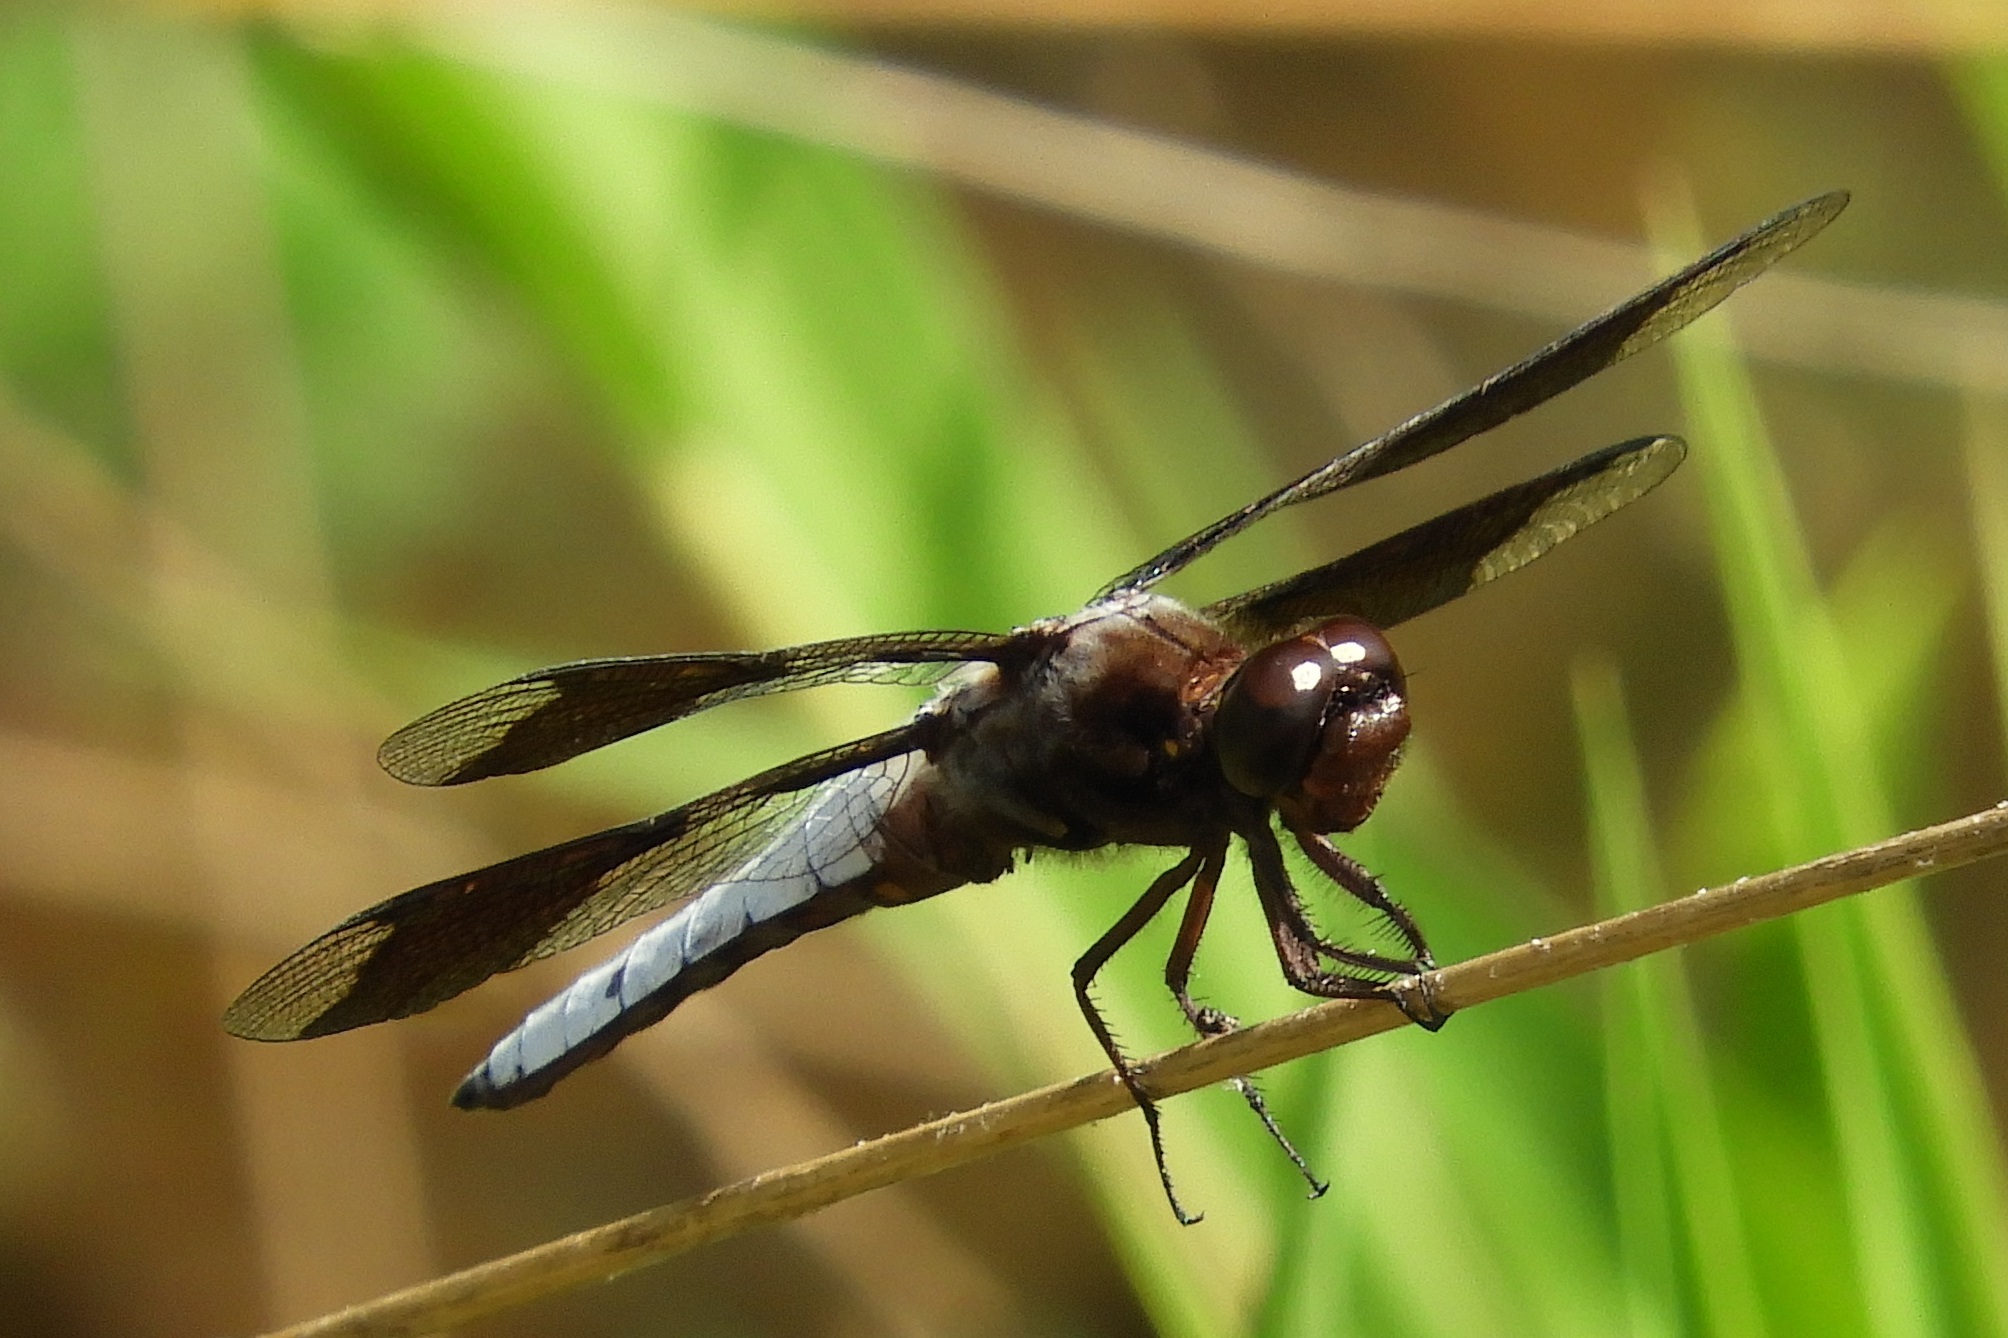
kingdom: Animalia
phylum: Arthropoda
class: Insecta
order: Odonata
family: Libellulidae
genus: Plathemis
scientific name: Plathemis lydia
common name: Common whitetail
